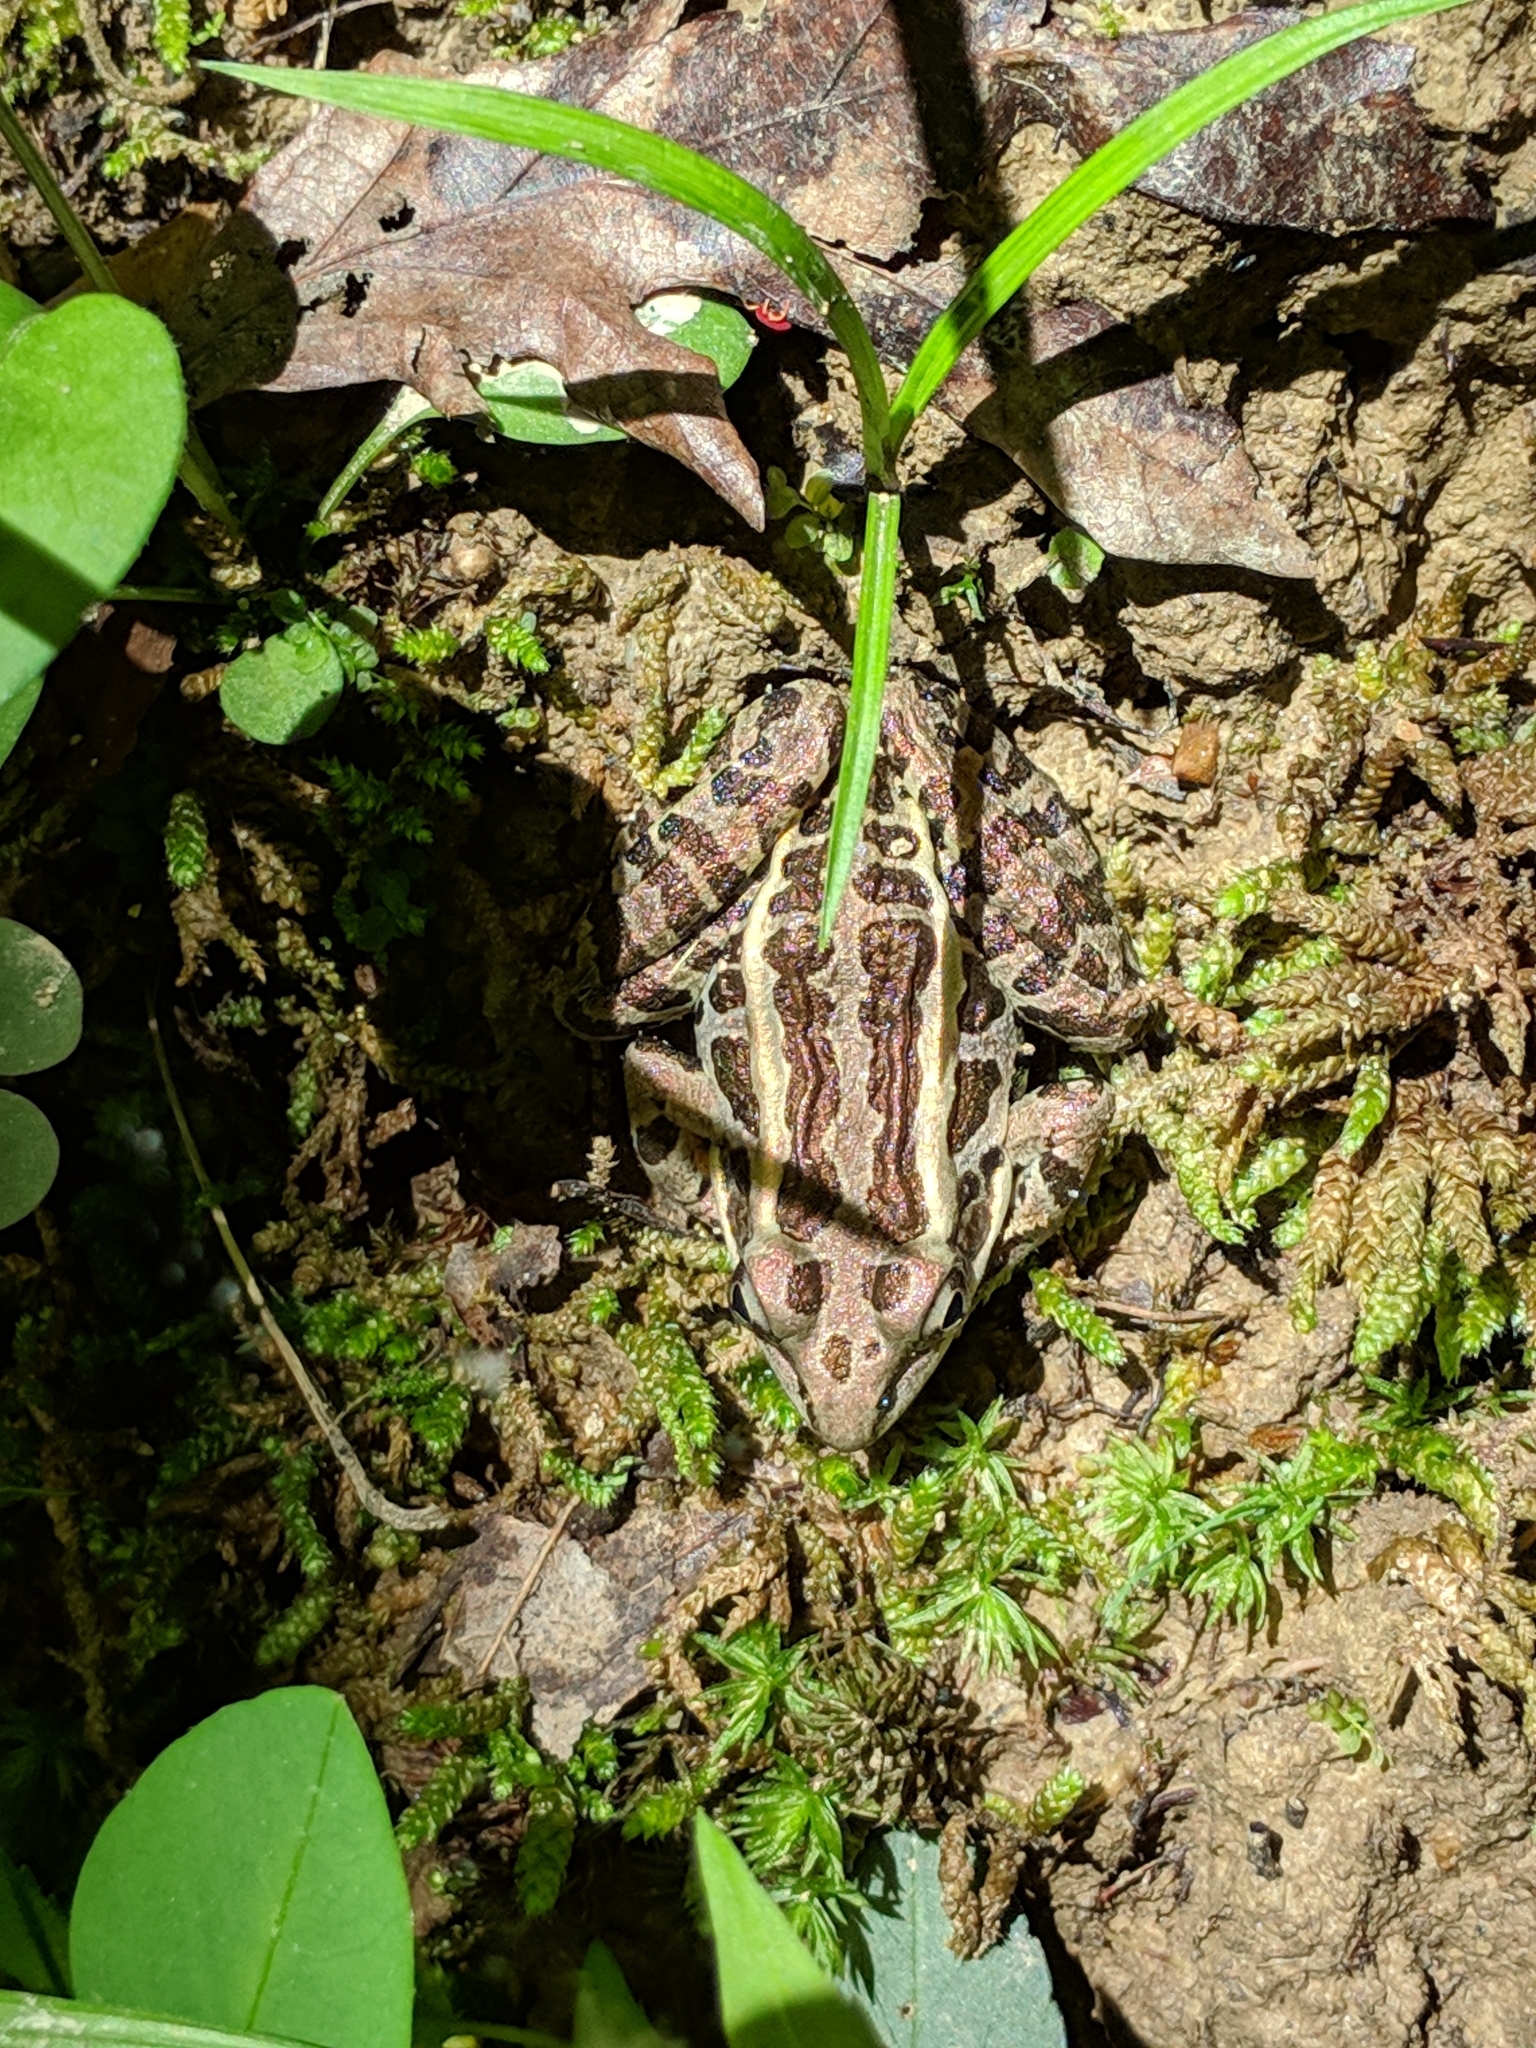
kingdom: Animalia
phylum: Chordata
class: Amphibia
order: Anura
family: Ranidae
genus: Lithobates
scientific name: Lithobates palustris
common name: Pickerel frog
